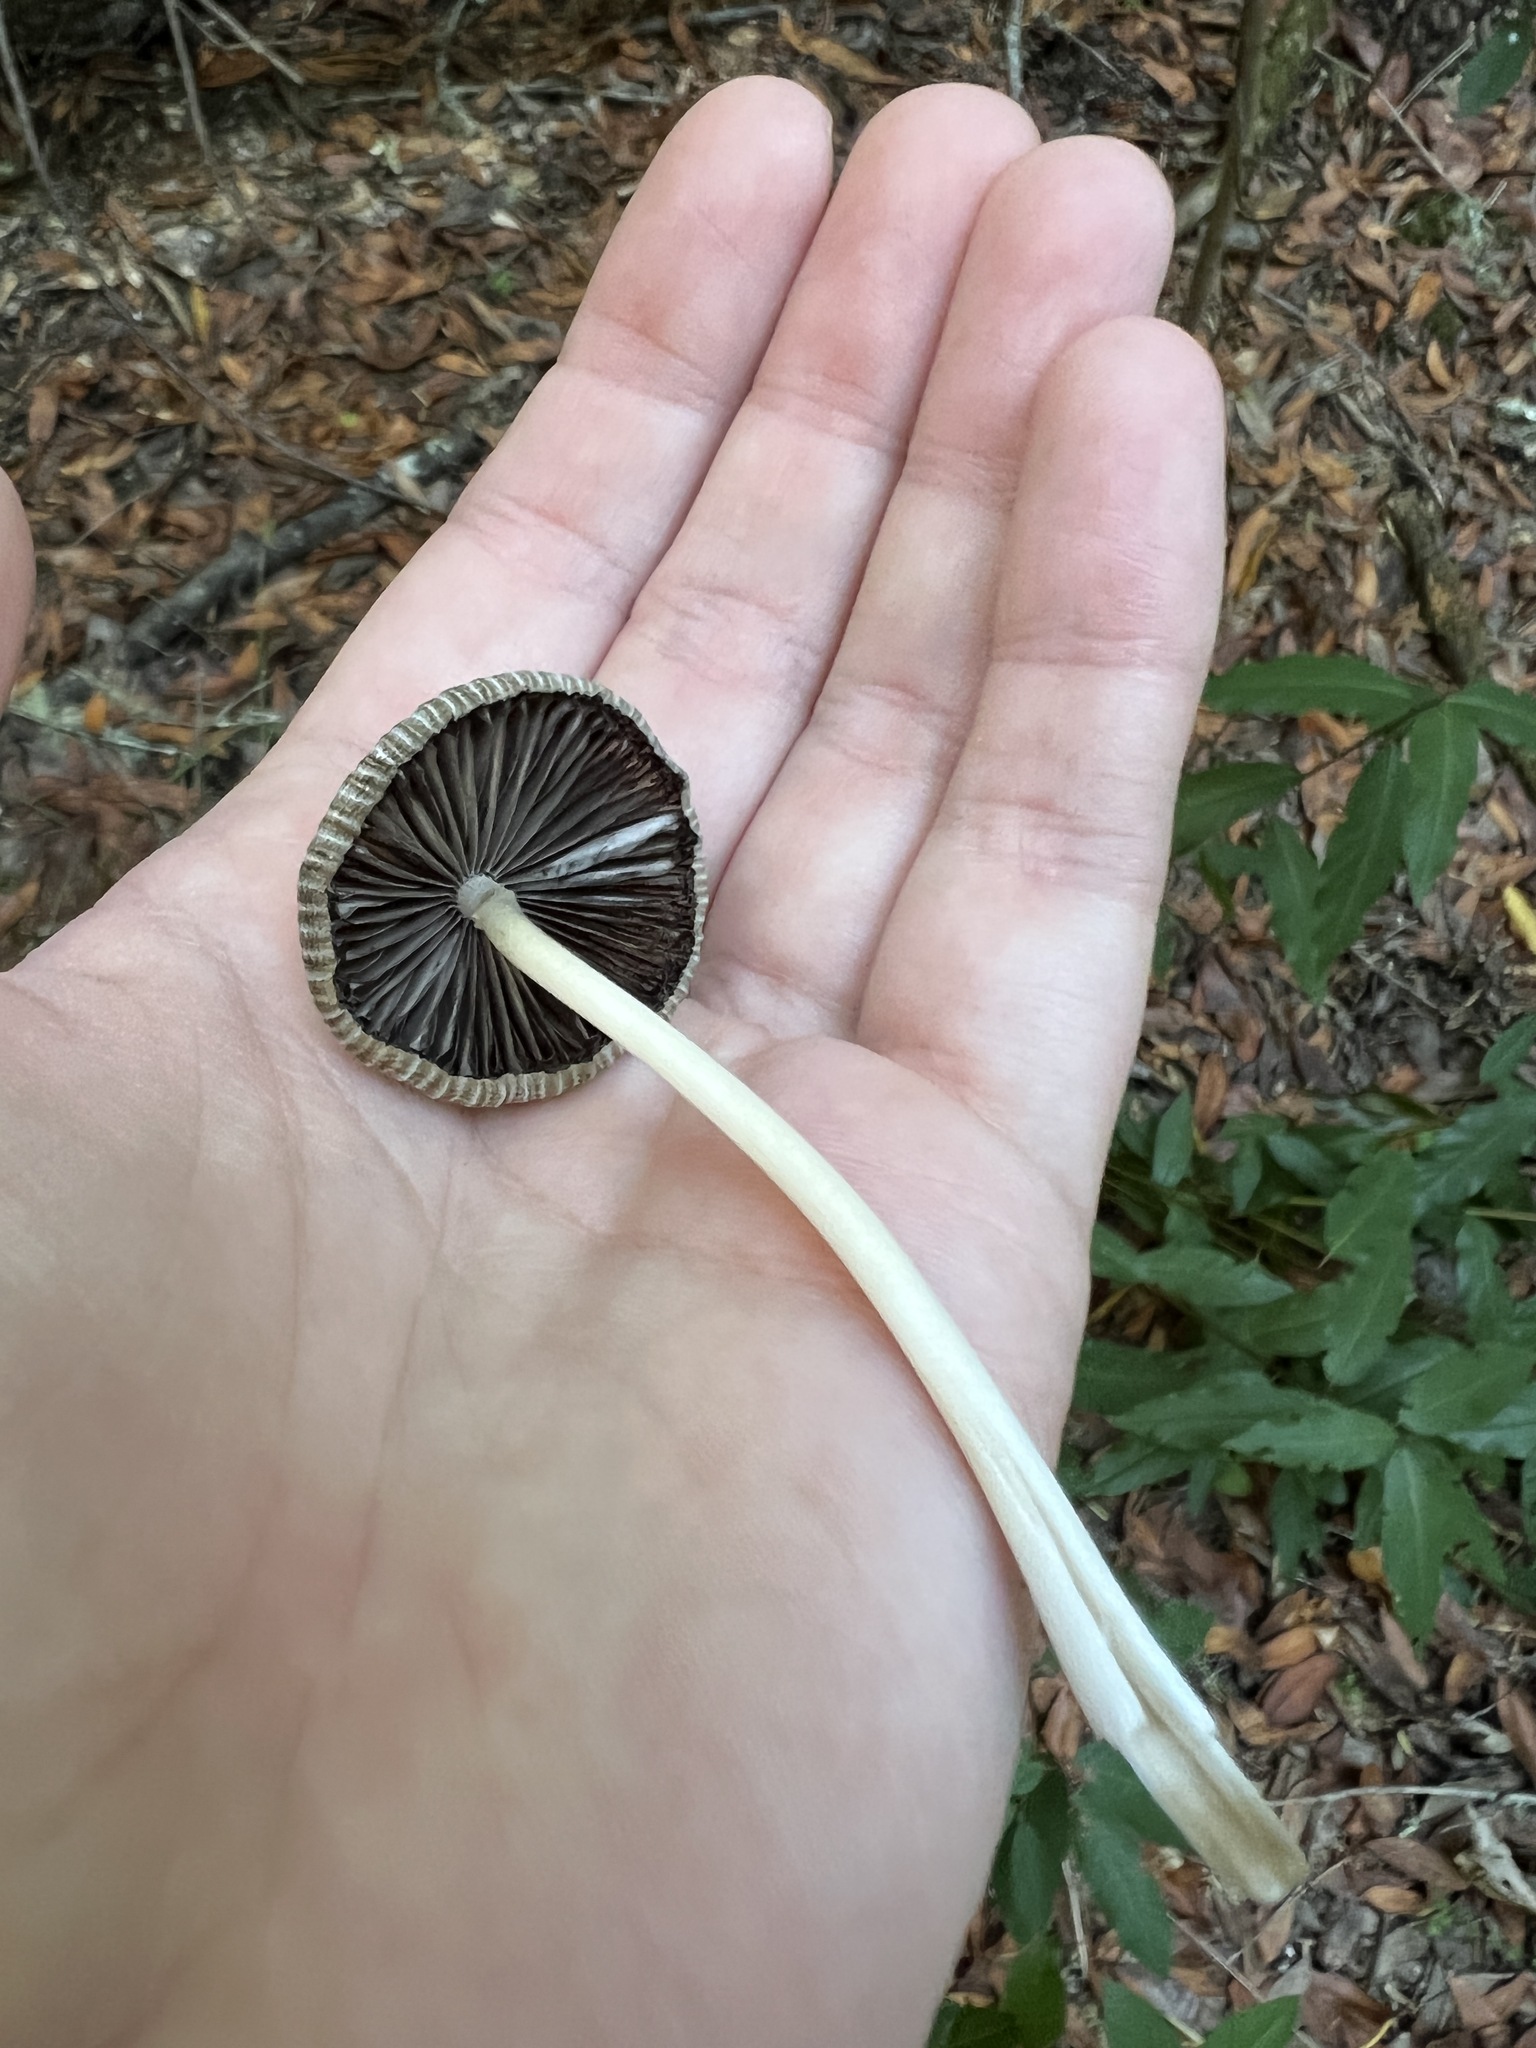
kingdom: Fungi
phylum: Basidiomycota
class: Agaricomycetes
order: Agaricales
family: Psathyrellaceae
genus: Tulosesus
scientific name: Tulosesus impatiens
